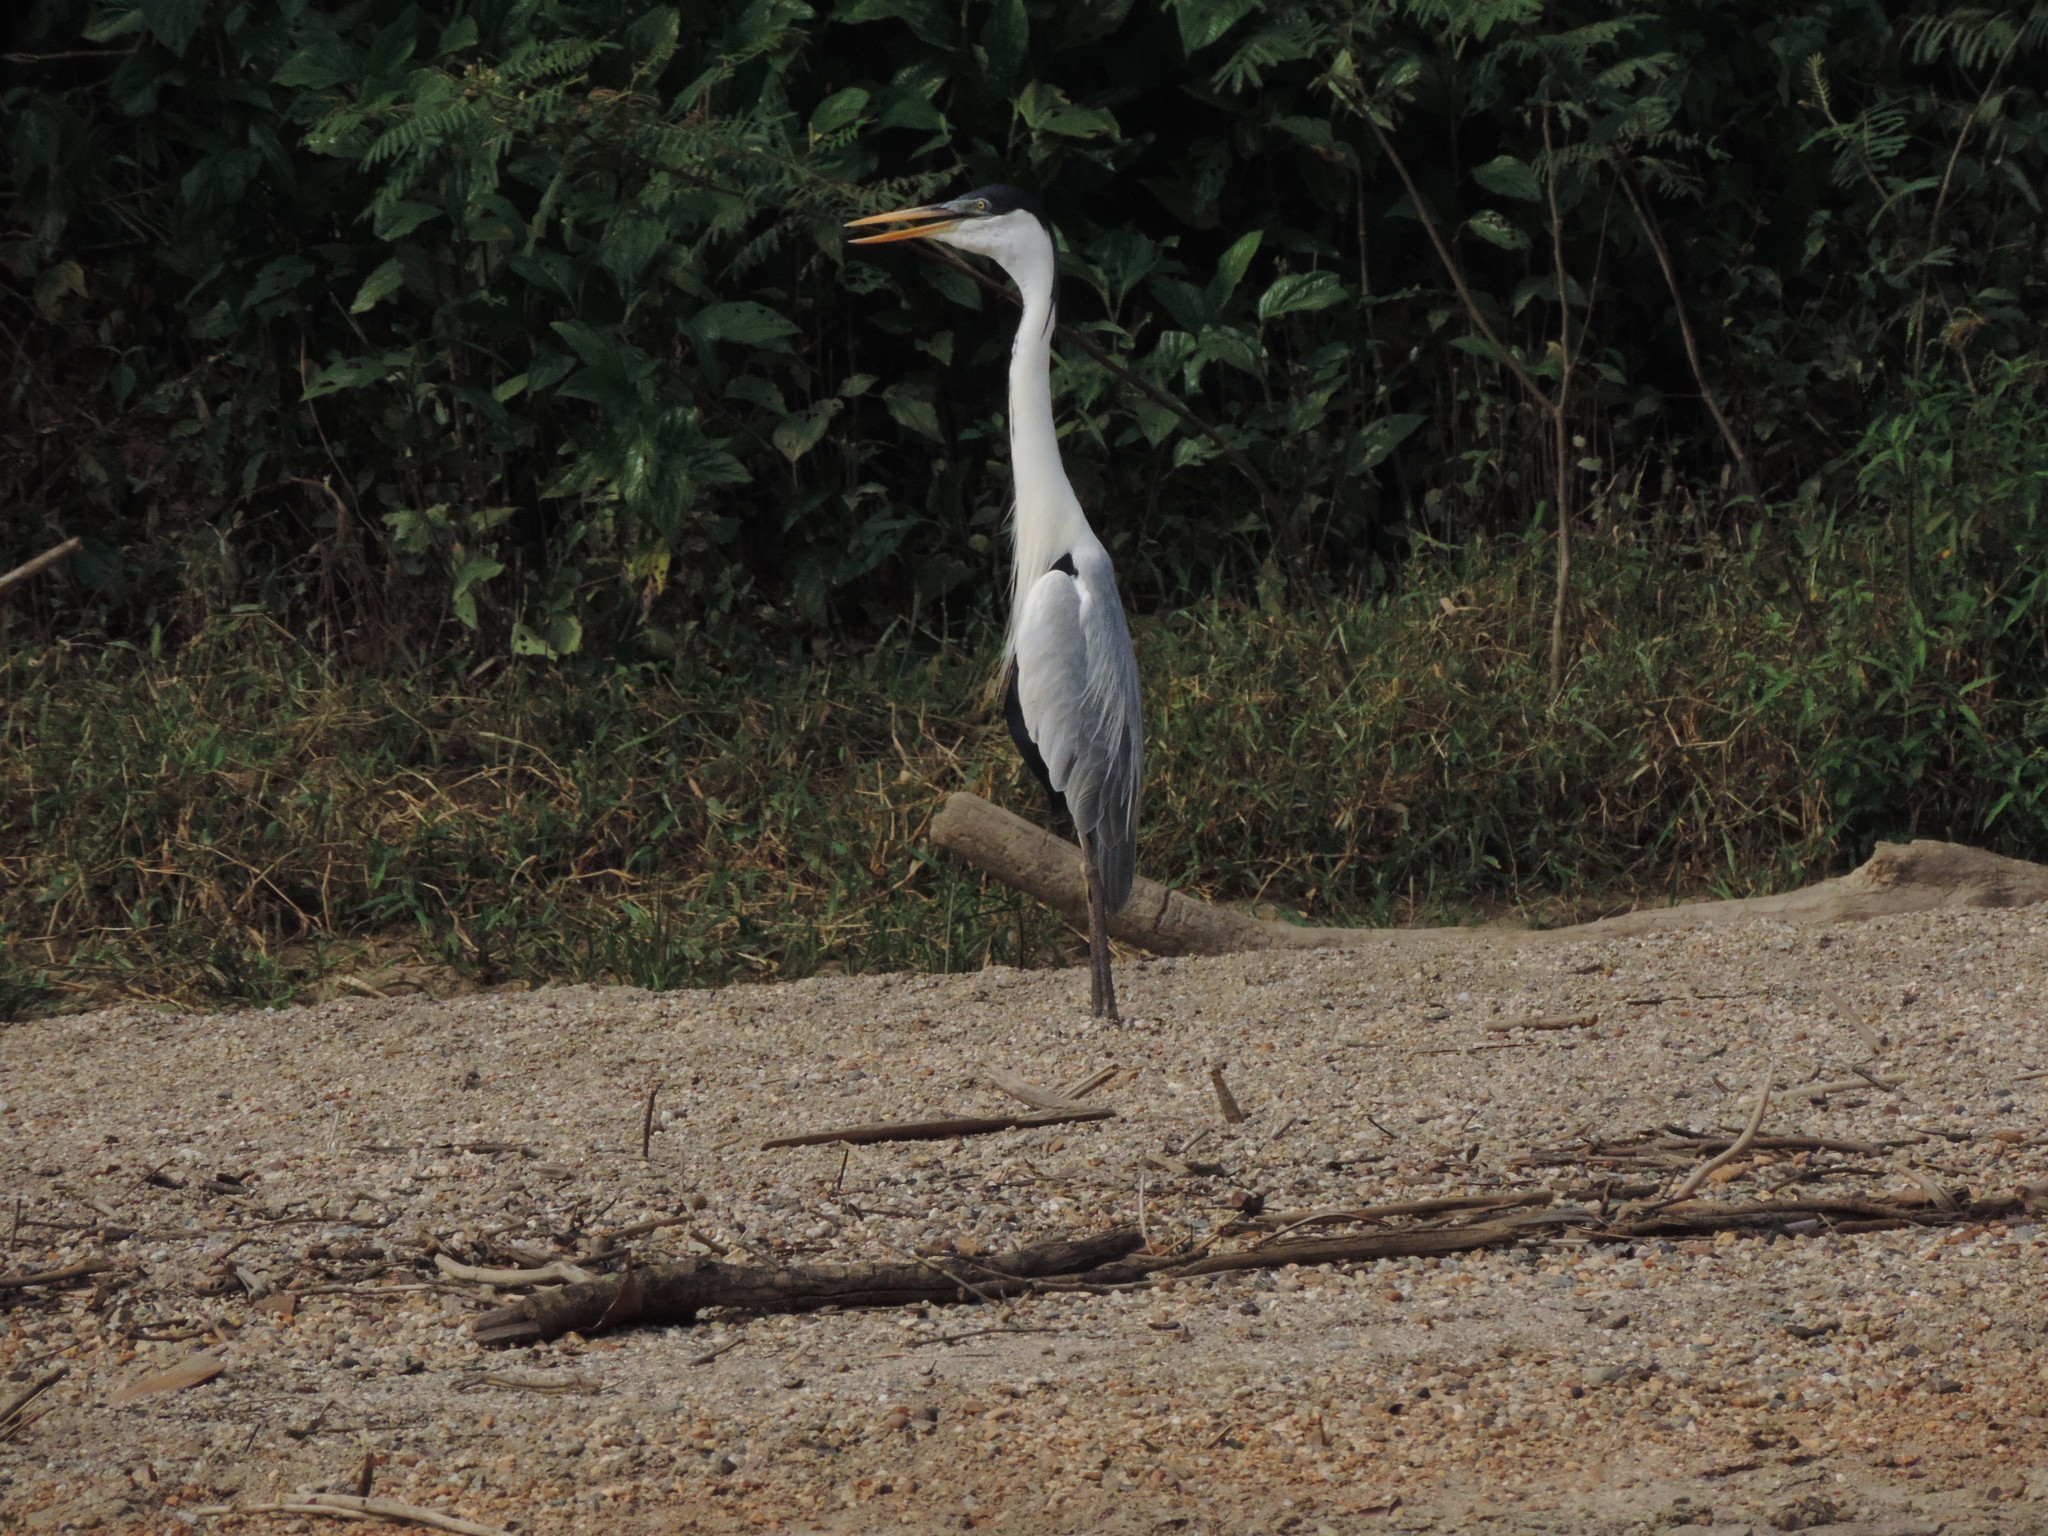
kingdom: Animalia
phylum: Chordata
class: Aves
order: Pelecaniformes
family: Ardeidae
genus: Ardea
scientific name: Ardea cocoi
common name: Cocoi heron
